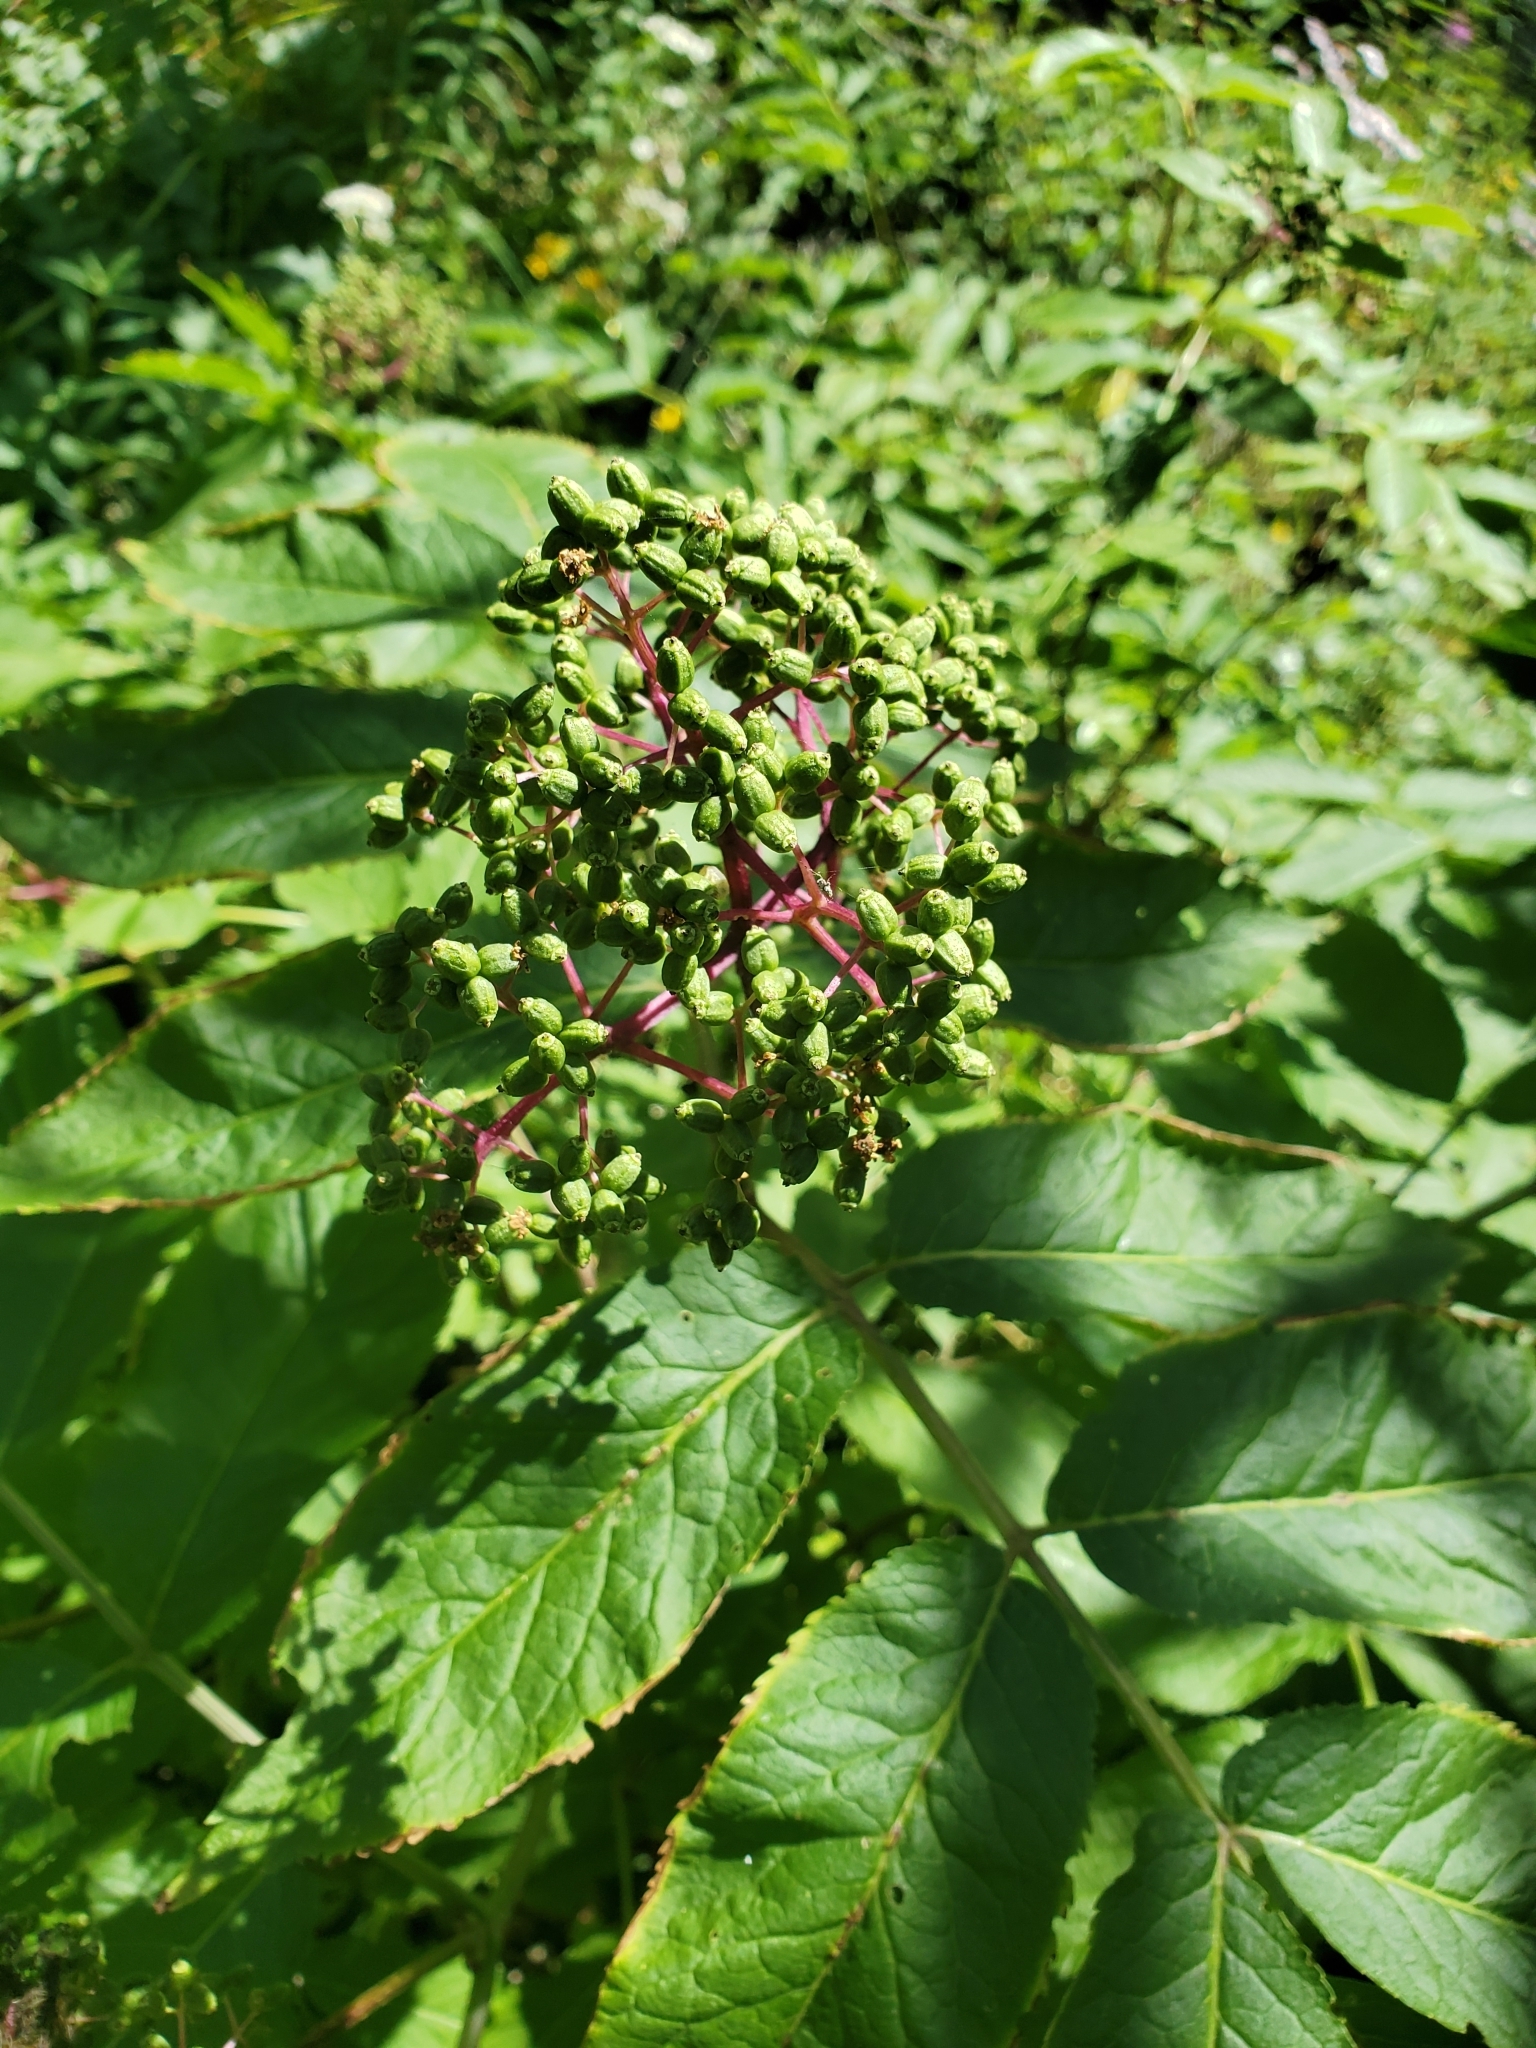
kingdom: Plantae
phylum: Tracheophyta
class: Magnoliopsida
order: Dipsacales
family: Viburnaceae
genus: Sambucus
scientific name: Sambucus racemosa
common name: Red-berried elder
